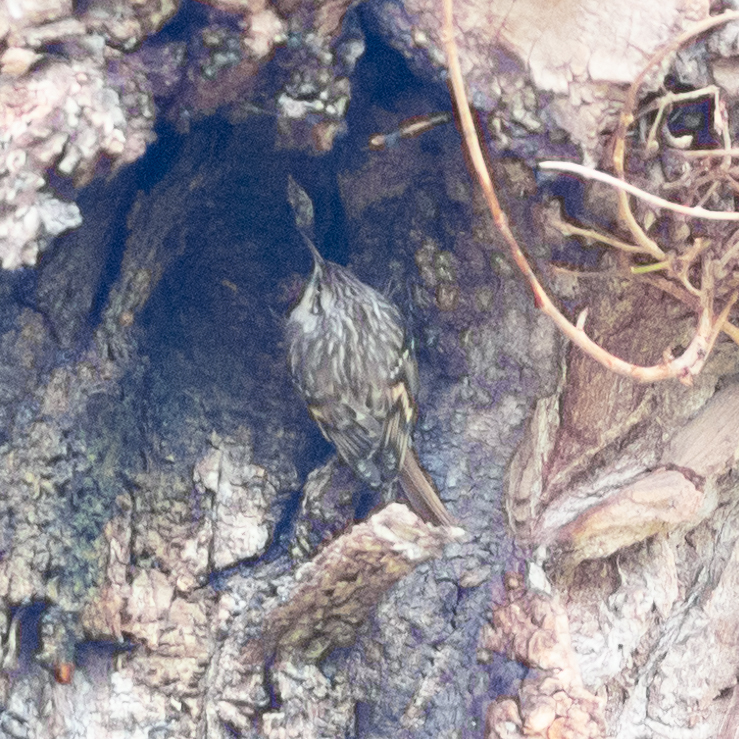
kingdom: Animalia
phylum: Chordata
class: Aves
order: Passeriformes
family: Certhiidae
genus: Certhia
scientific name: Certhia brachydactyla
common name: Short-toed treecreeper
